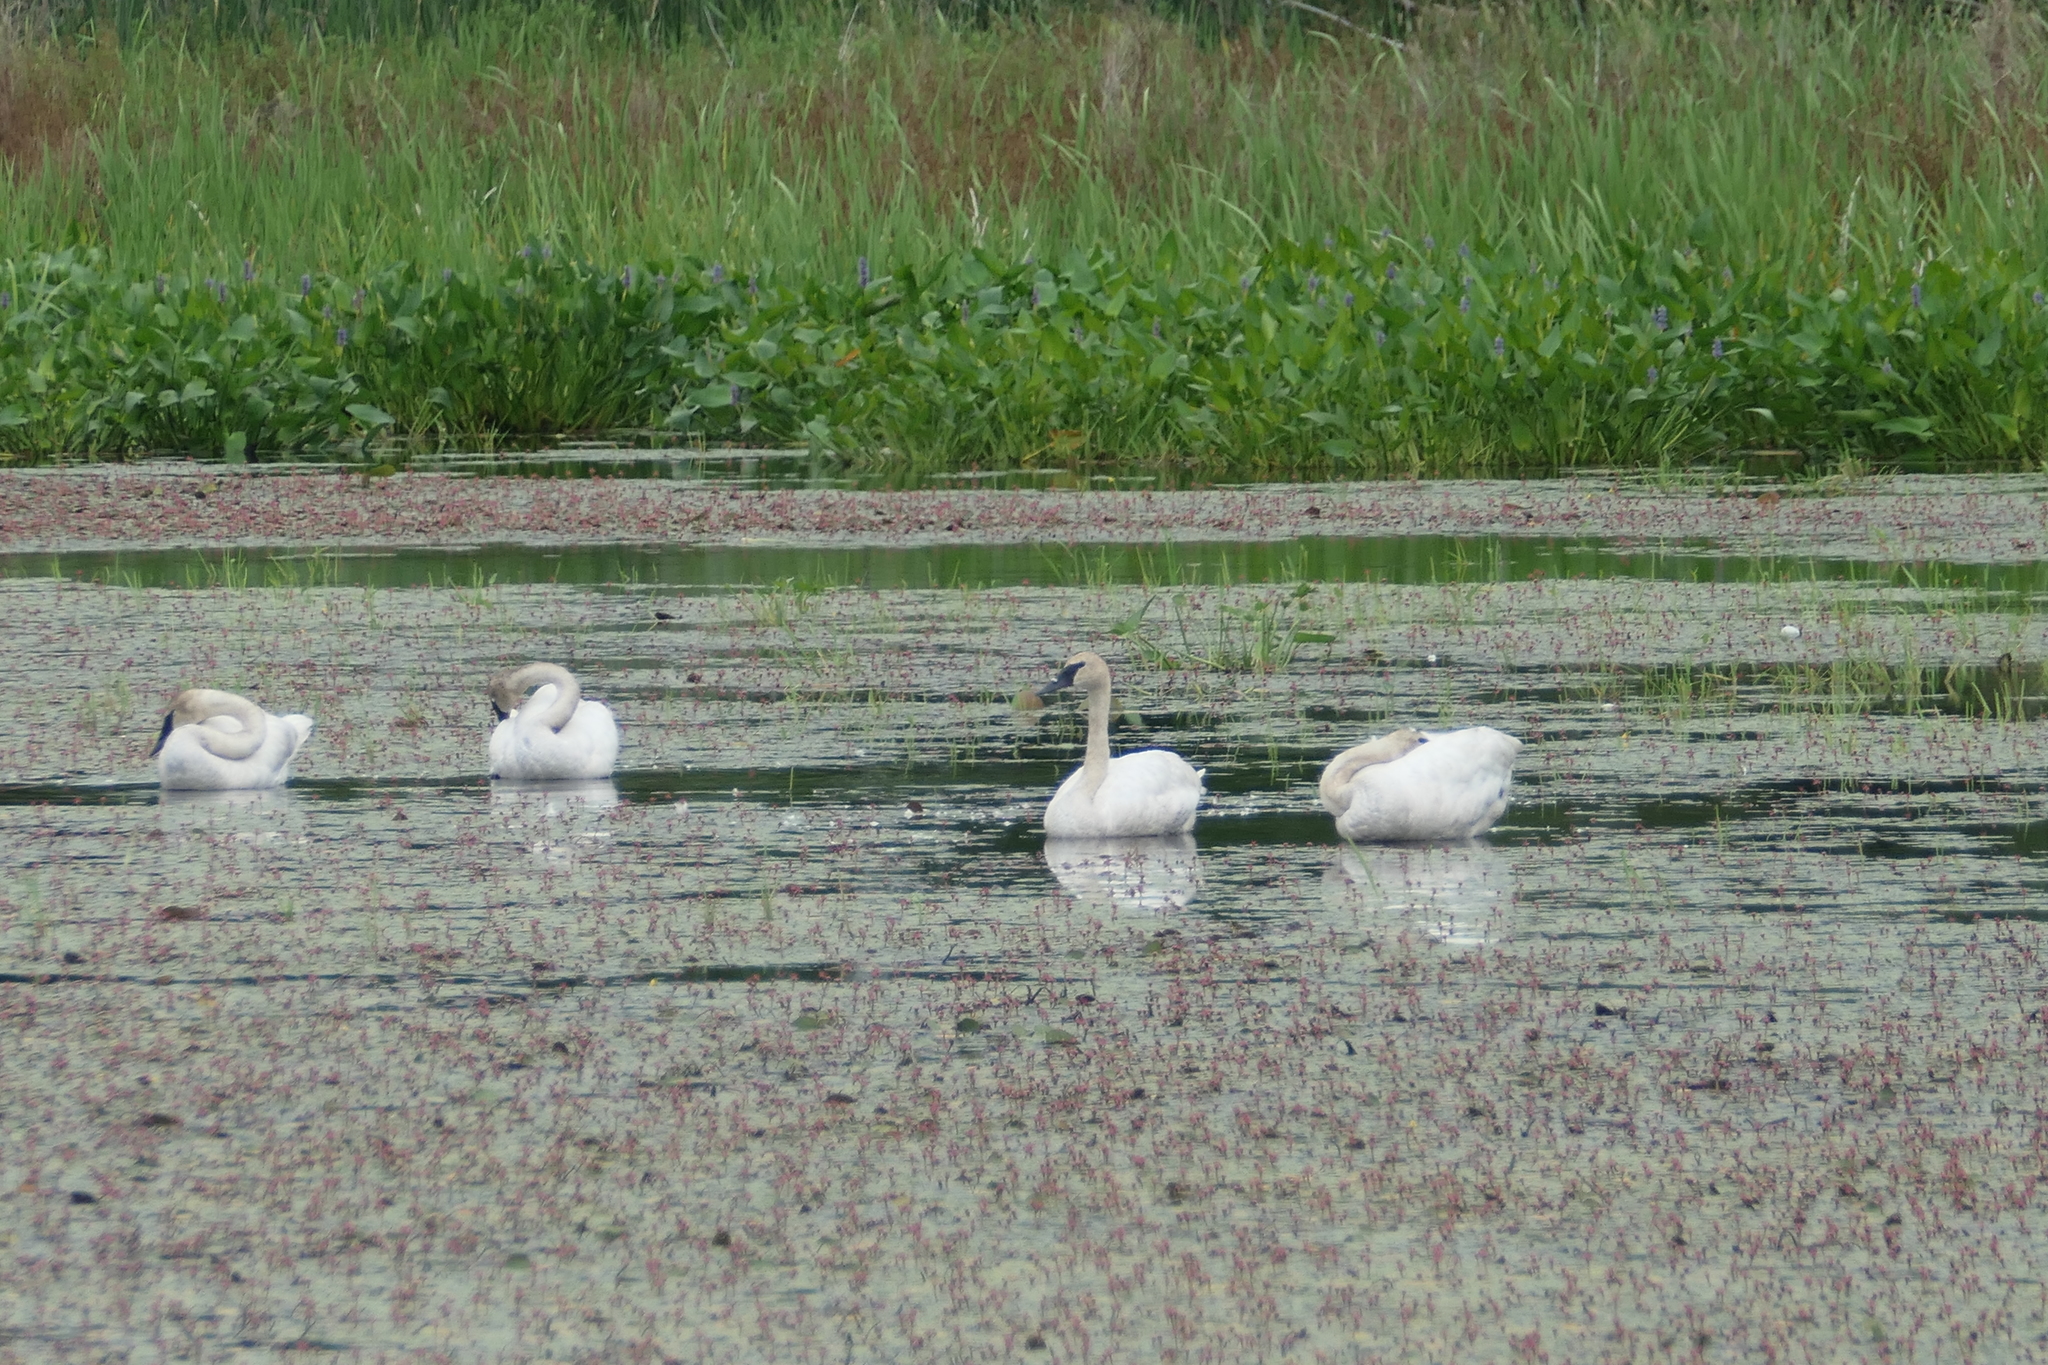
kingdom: Animalia
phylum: Chordata
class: Aves
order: Anseriformes
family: Anatidae
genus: Cygnus
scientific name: Cygnus buccinator
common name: Trumpeter swan
